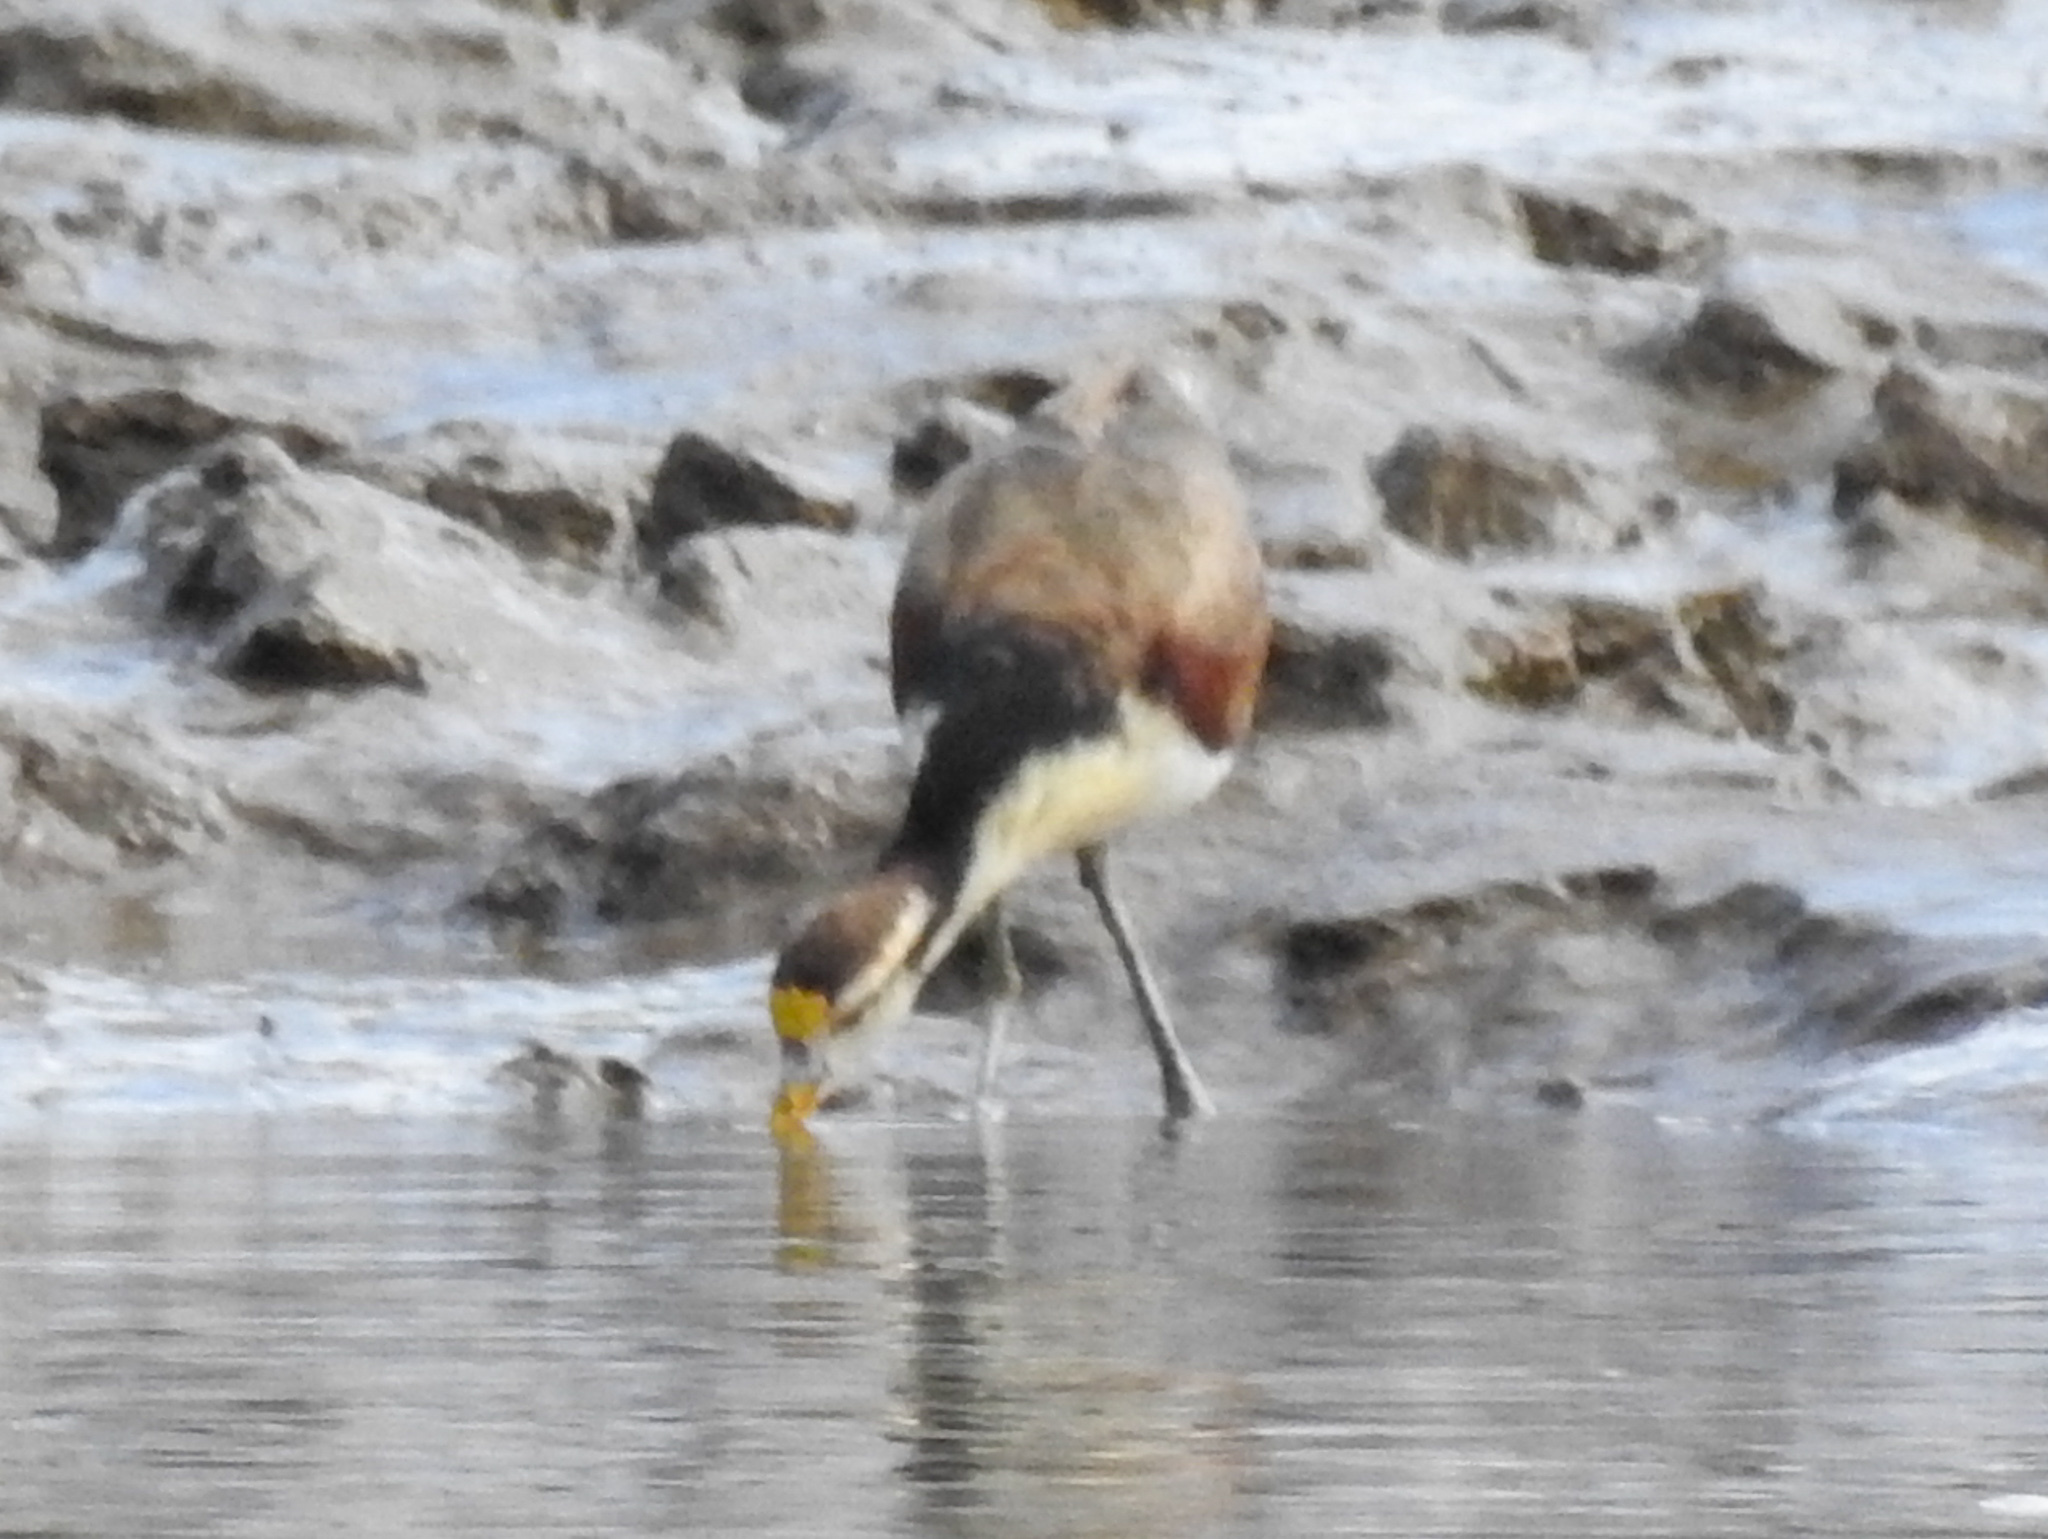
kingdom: Animalia
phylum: Chordata
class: Aves
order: Charadriiformes
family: Jacanidae
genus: Jacana
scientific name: Jacana spinosa
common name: Northern jacana
